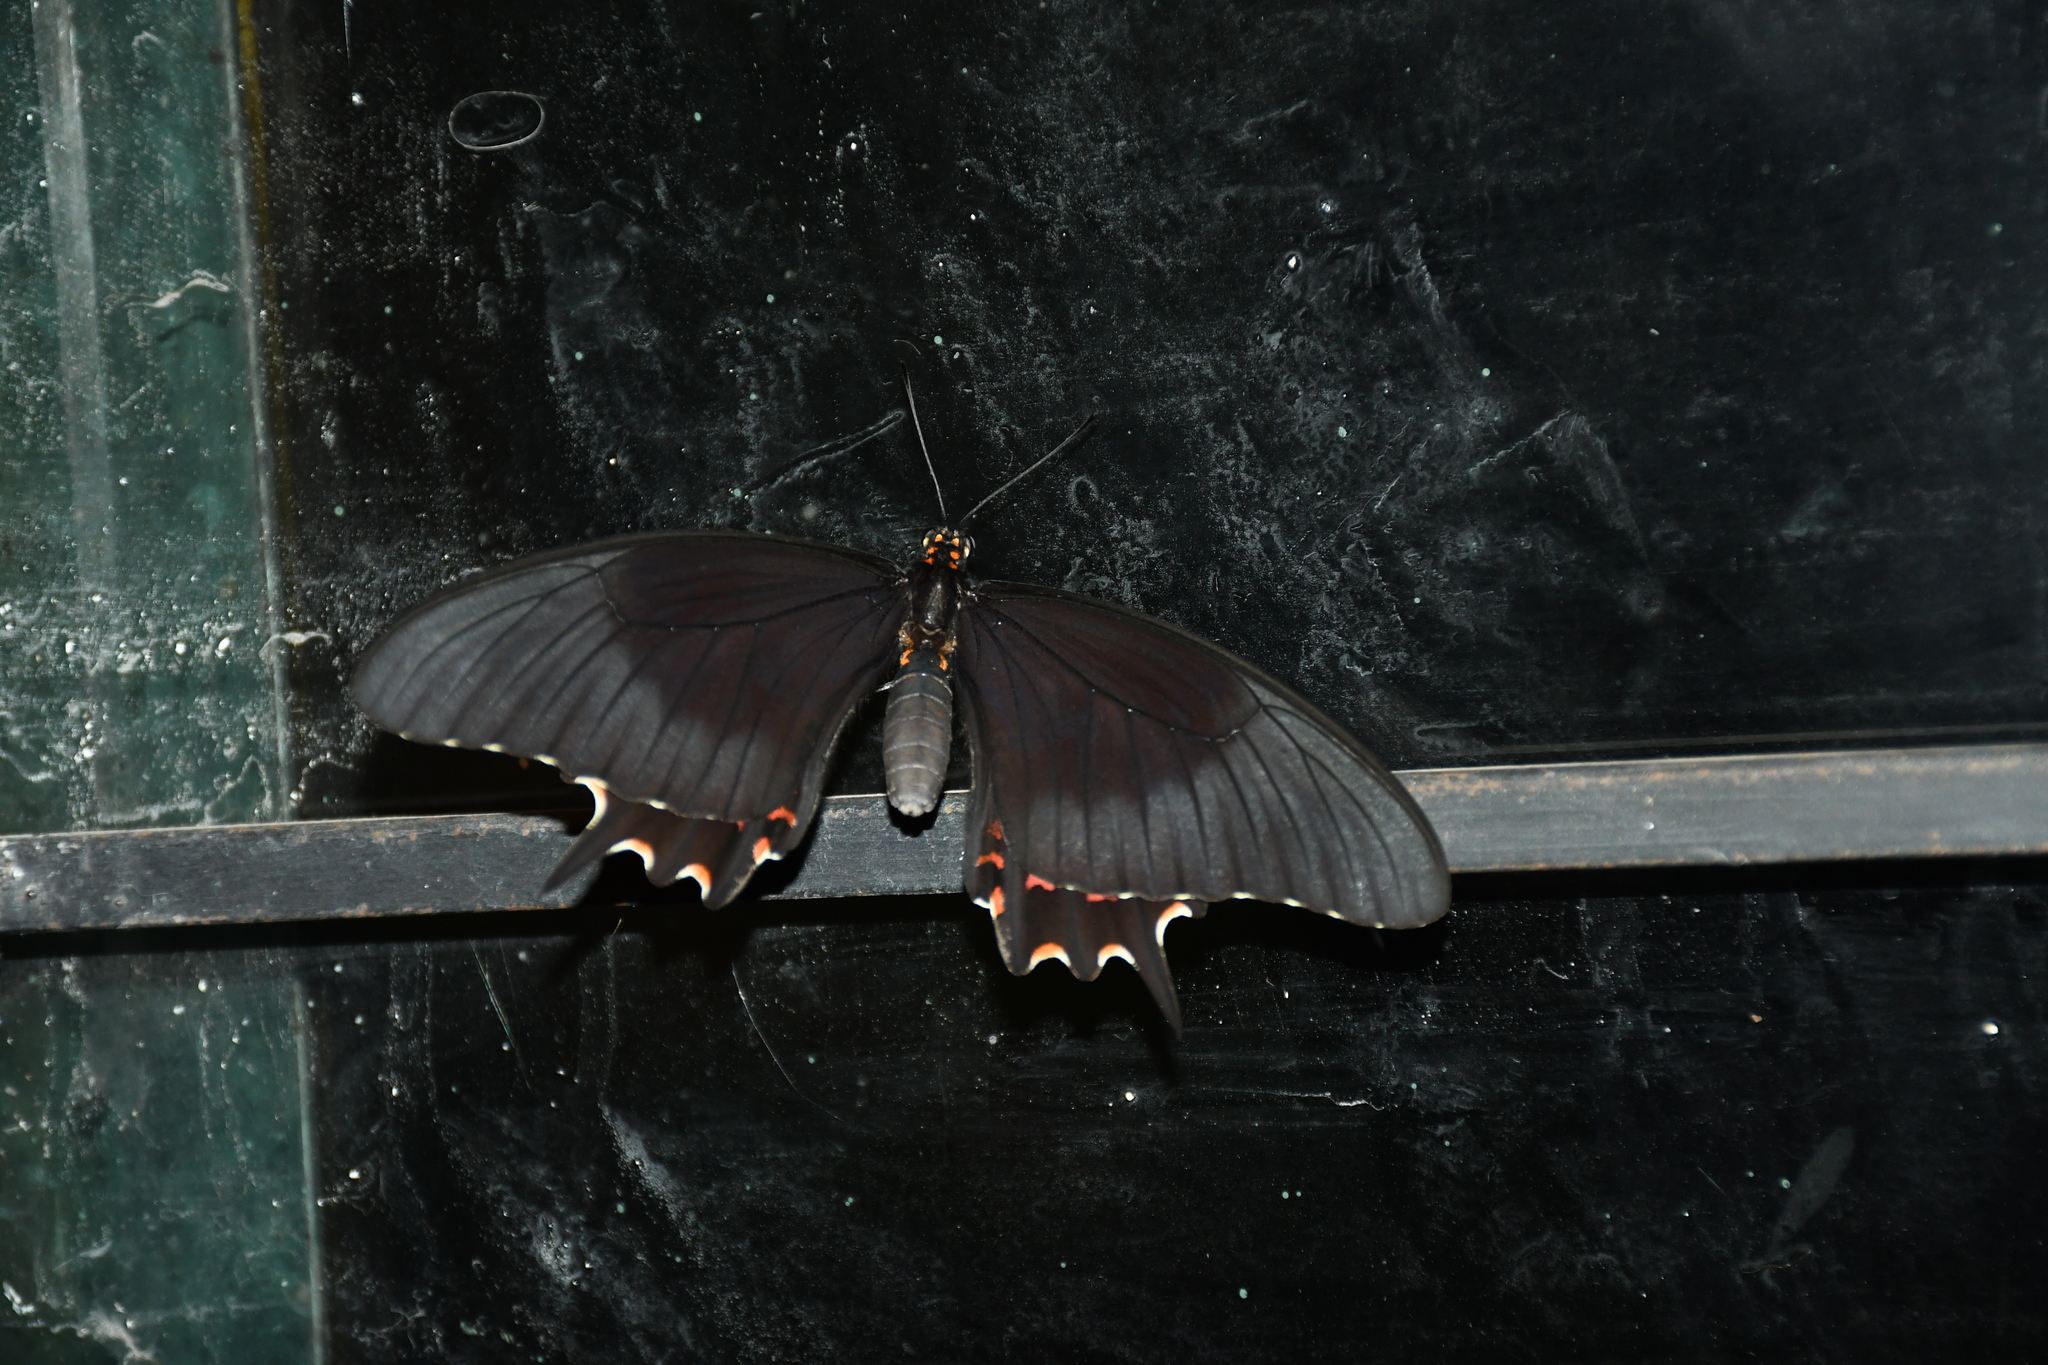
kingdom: Animalia
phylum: Arthropoda
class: Insecta
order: Lepidoptera
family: Papilionidae
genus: Heraclides
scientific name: Heraclides rogeri
